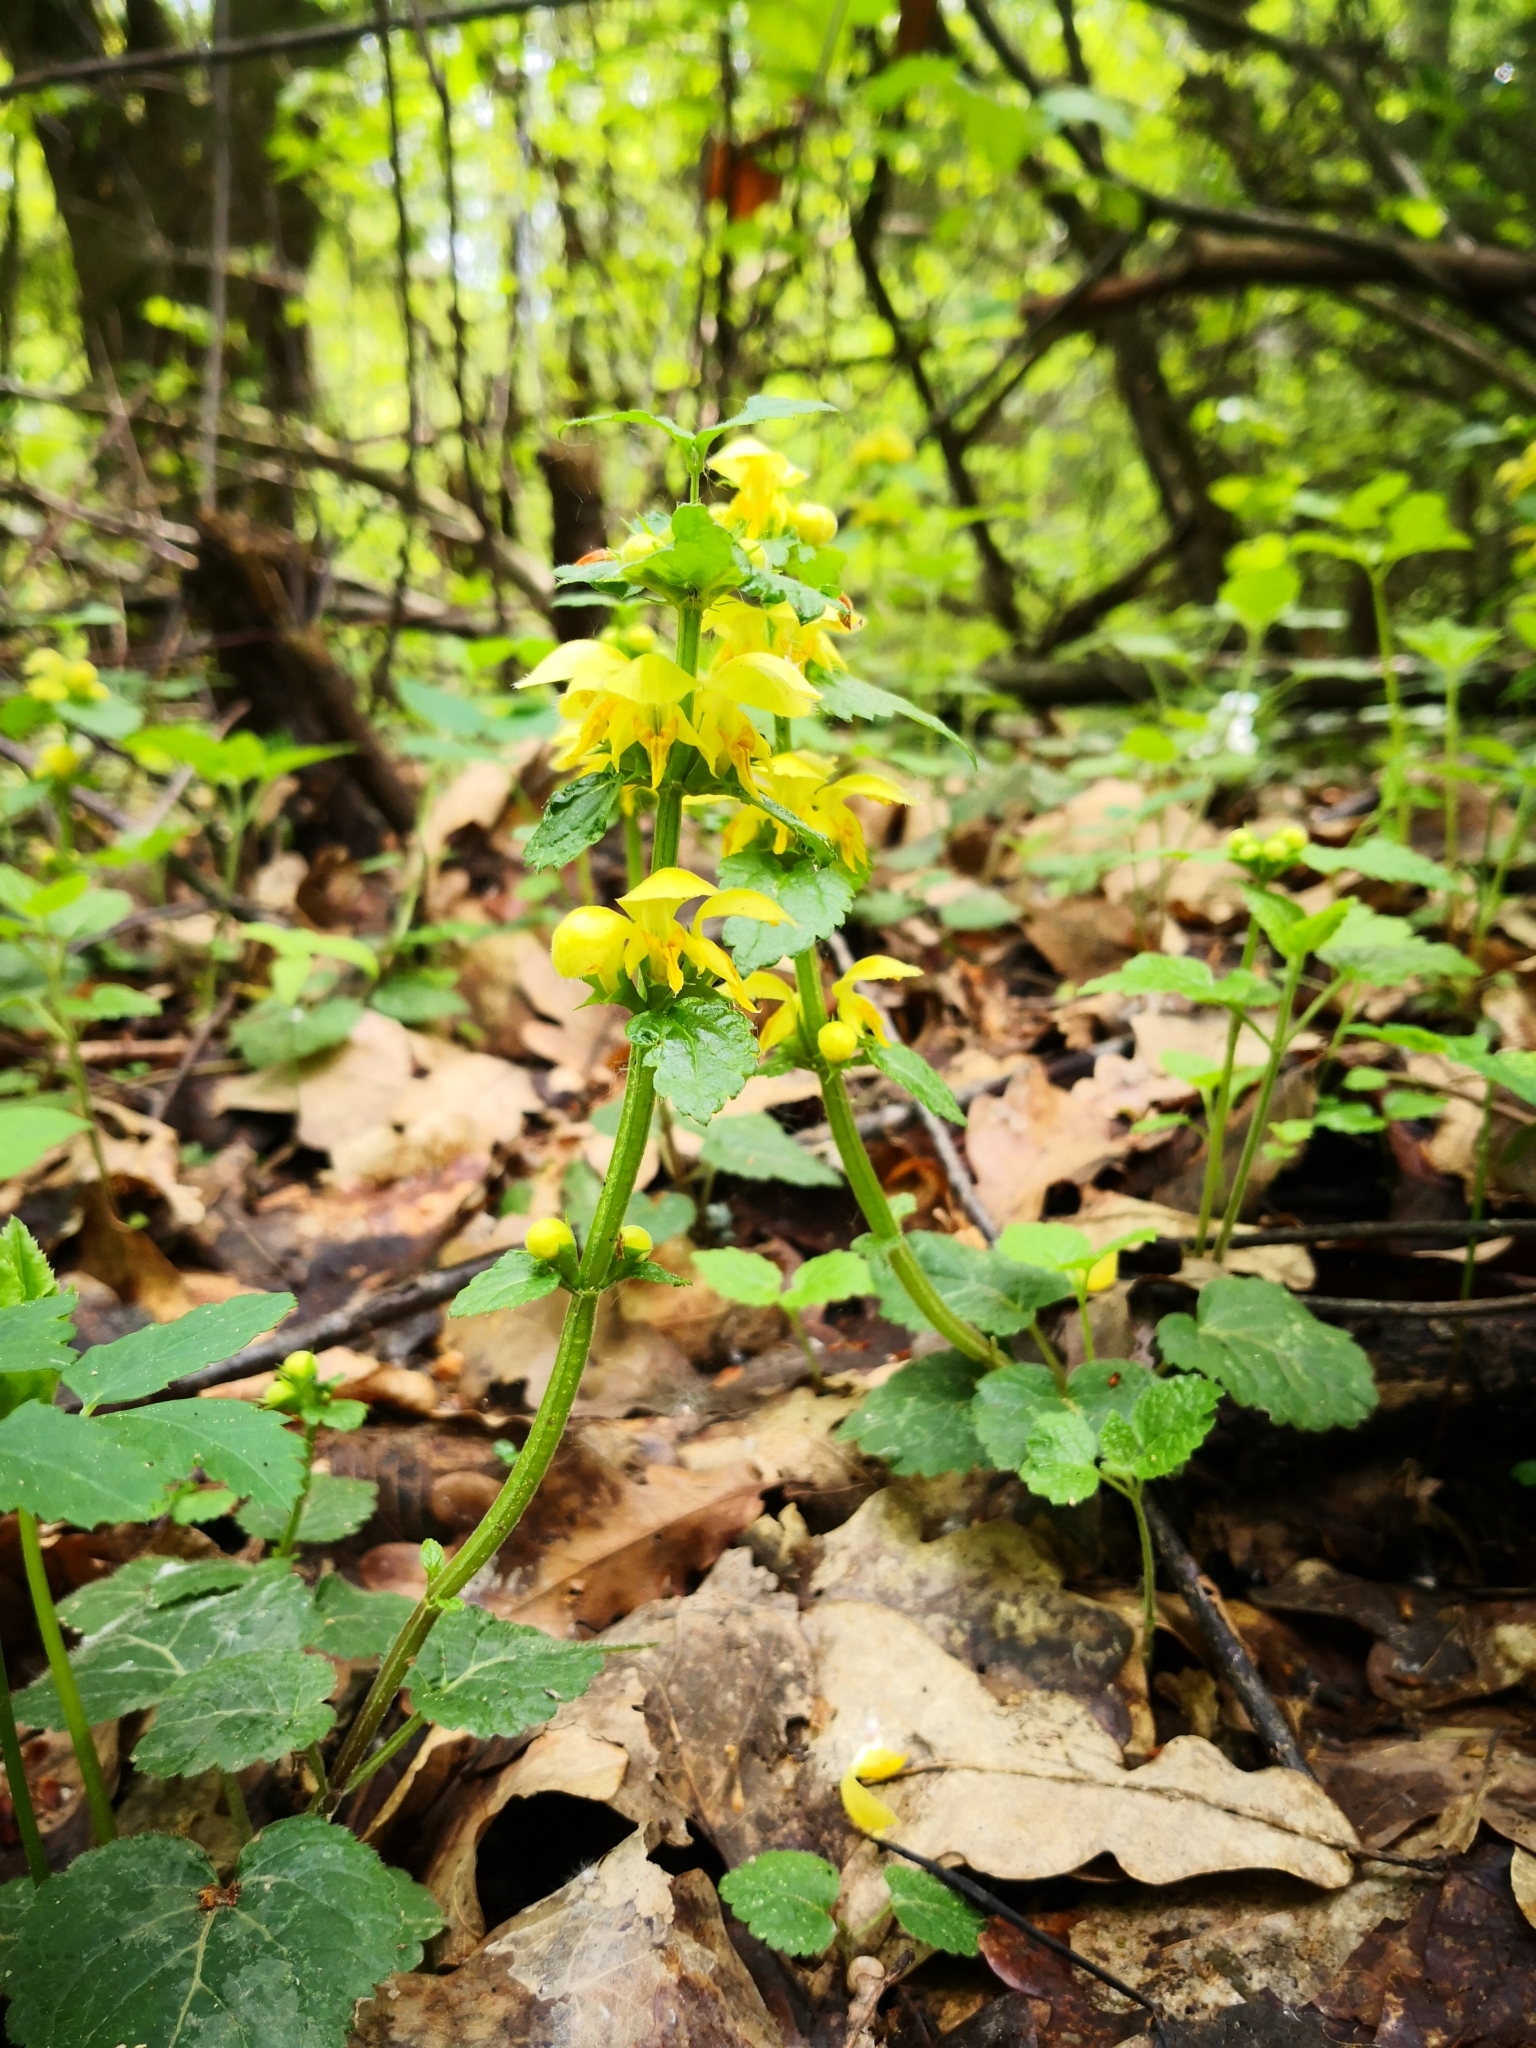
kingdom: Plantae
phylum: Tracheophyta
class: Magnoliopsida
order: Lamiales
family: Lamiaceae
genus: Lamium
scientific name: Lamium galeobdolon
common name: Yellow archangel
